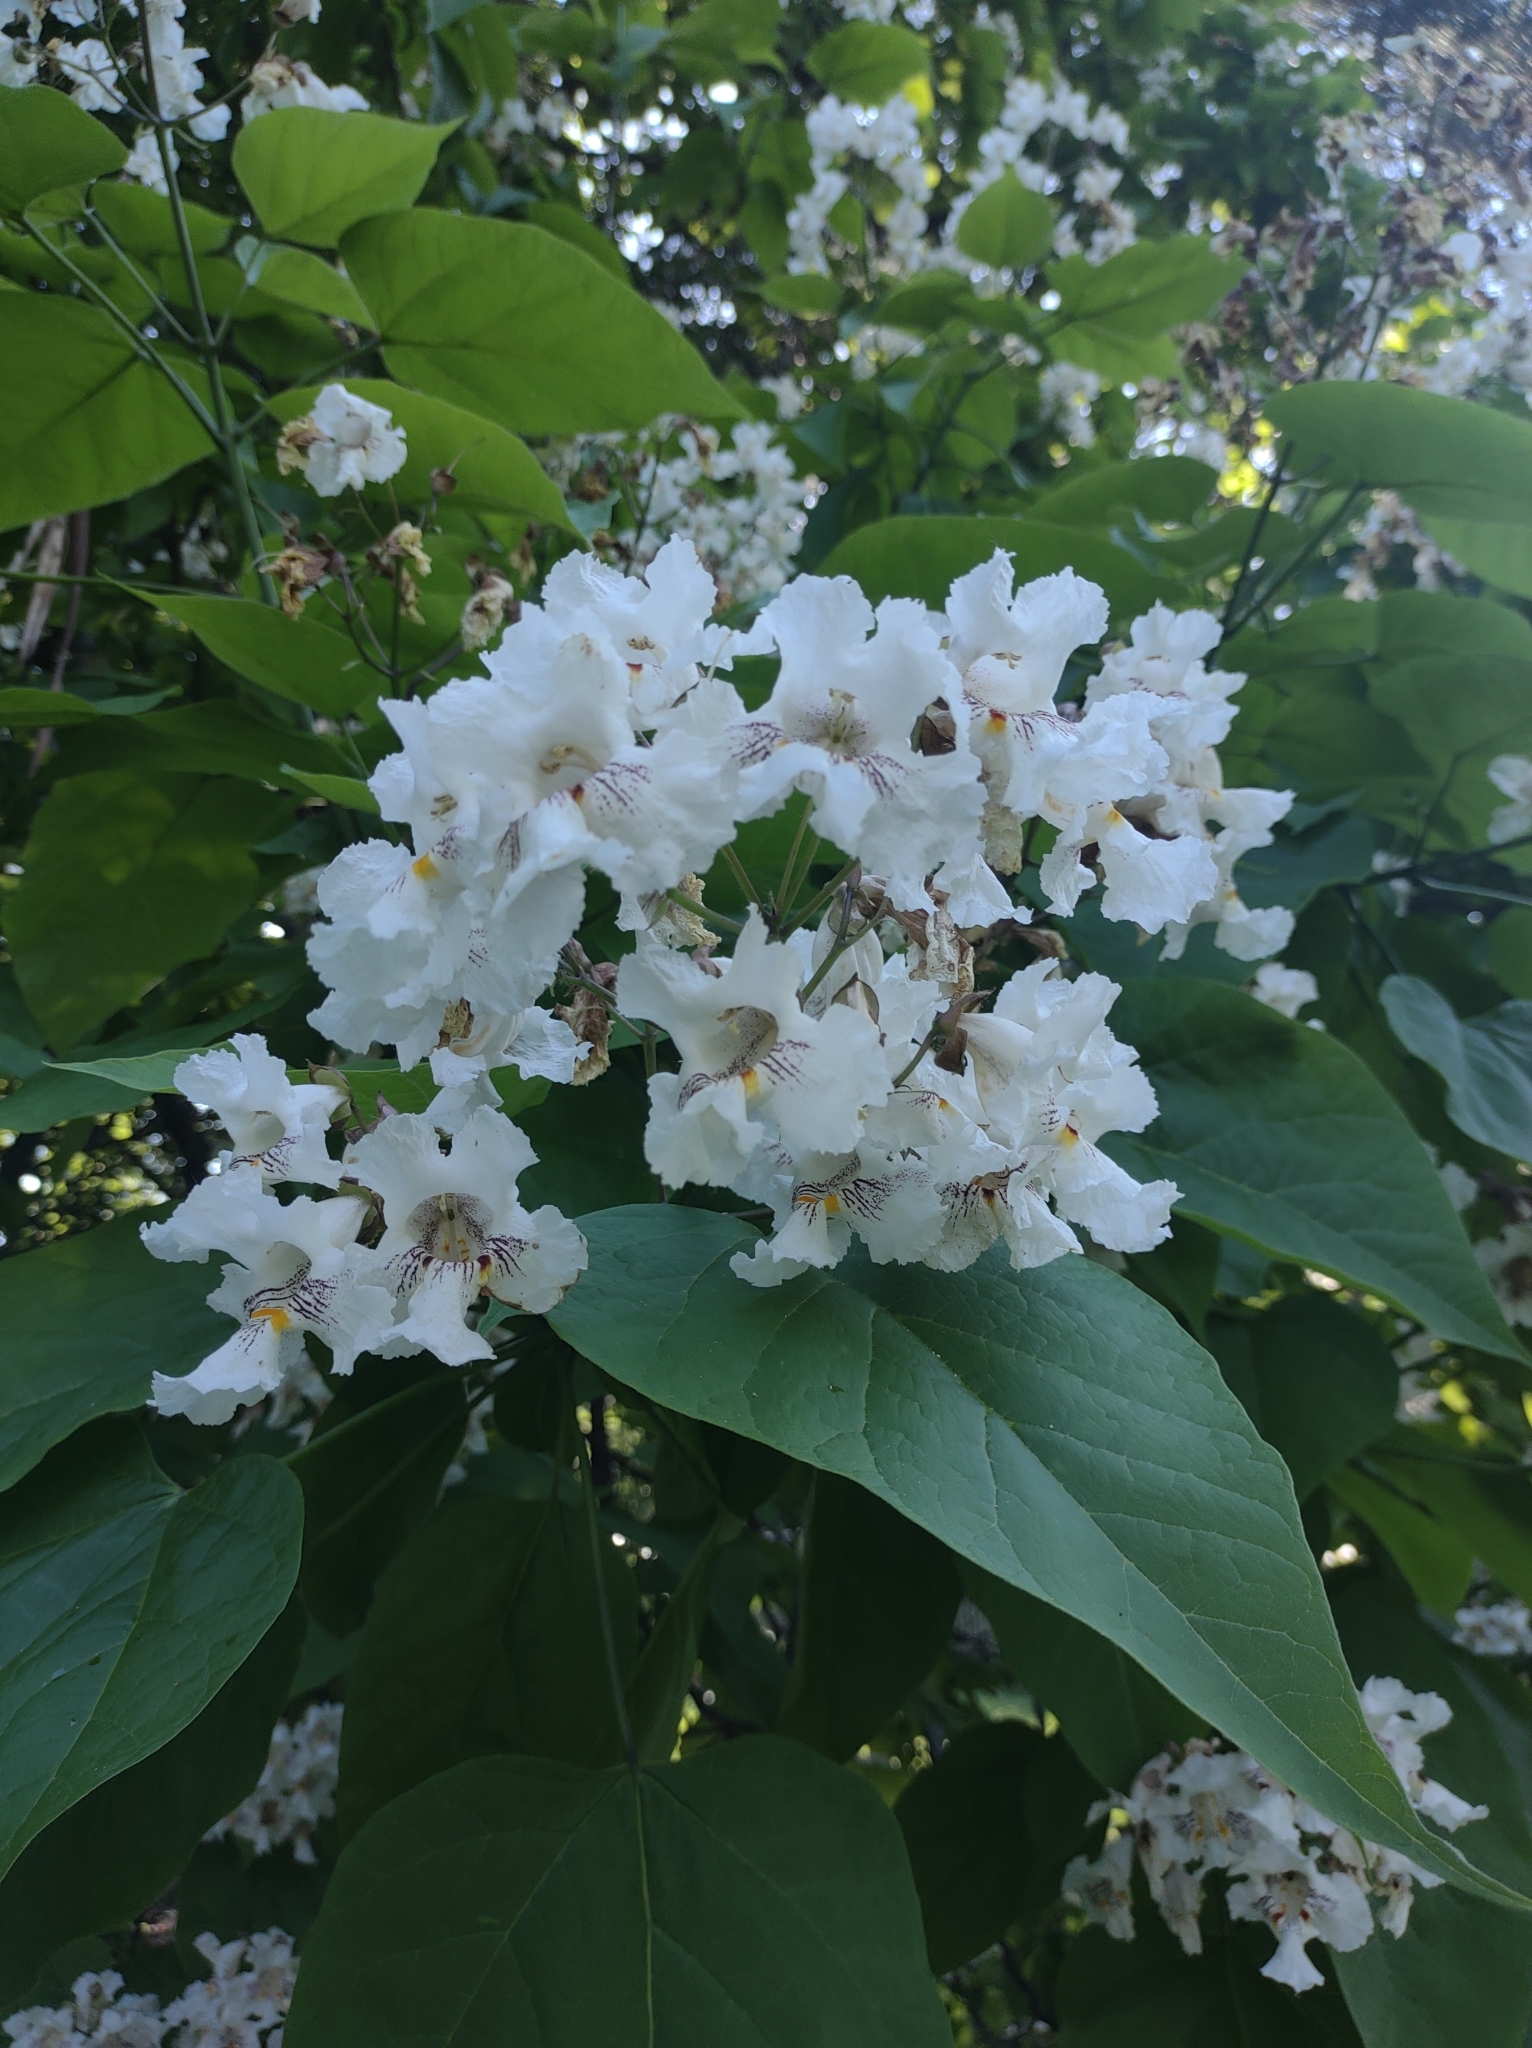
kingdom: Plantae
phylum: Tracheophyta
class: Magnoliopsida
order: Lamiales
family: Bignoniaceae
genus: Catalpa
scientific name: Catalpa bignonioides
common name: Southern catalpa
